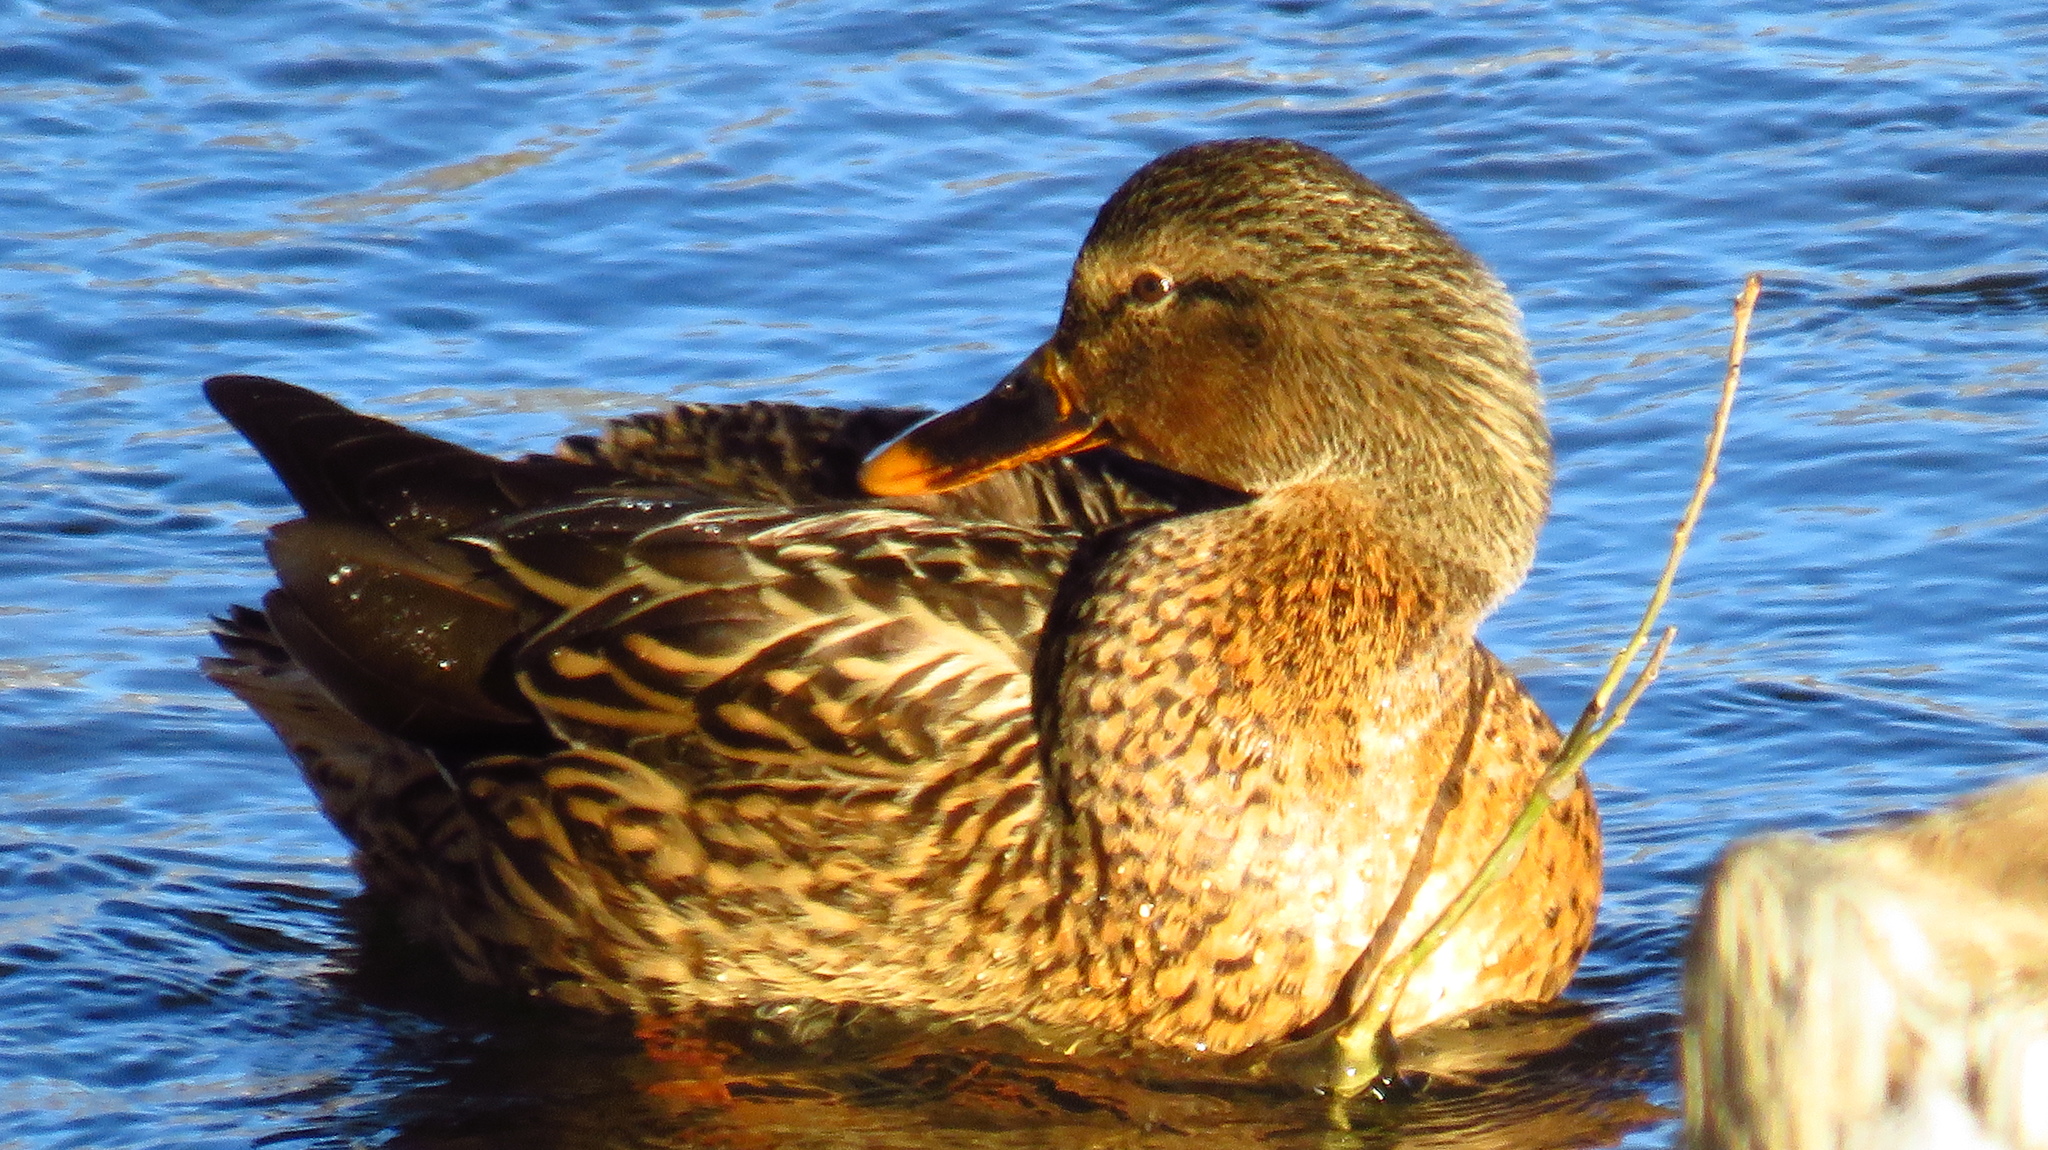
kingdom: Animalia
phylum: Chordata
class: Aves
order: Anseriformes
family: Anatidae
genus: Anas
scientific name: Anas platyrhynchos
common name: Mallard
